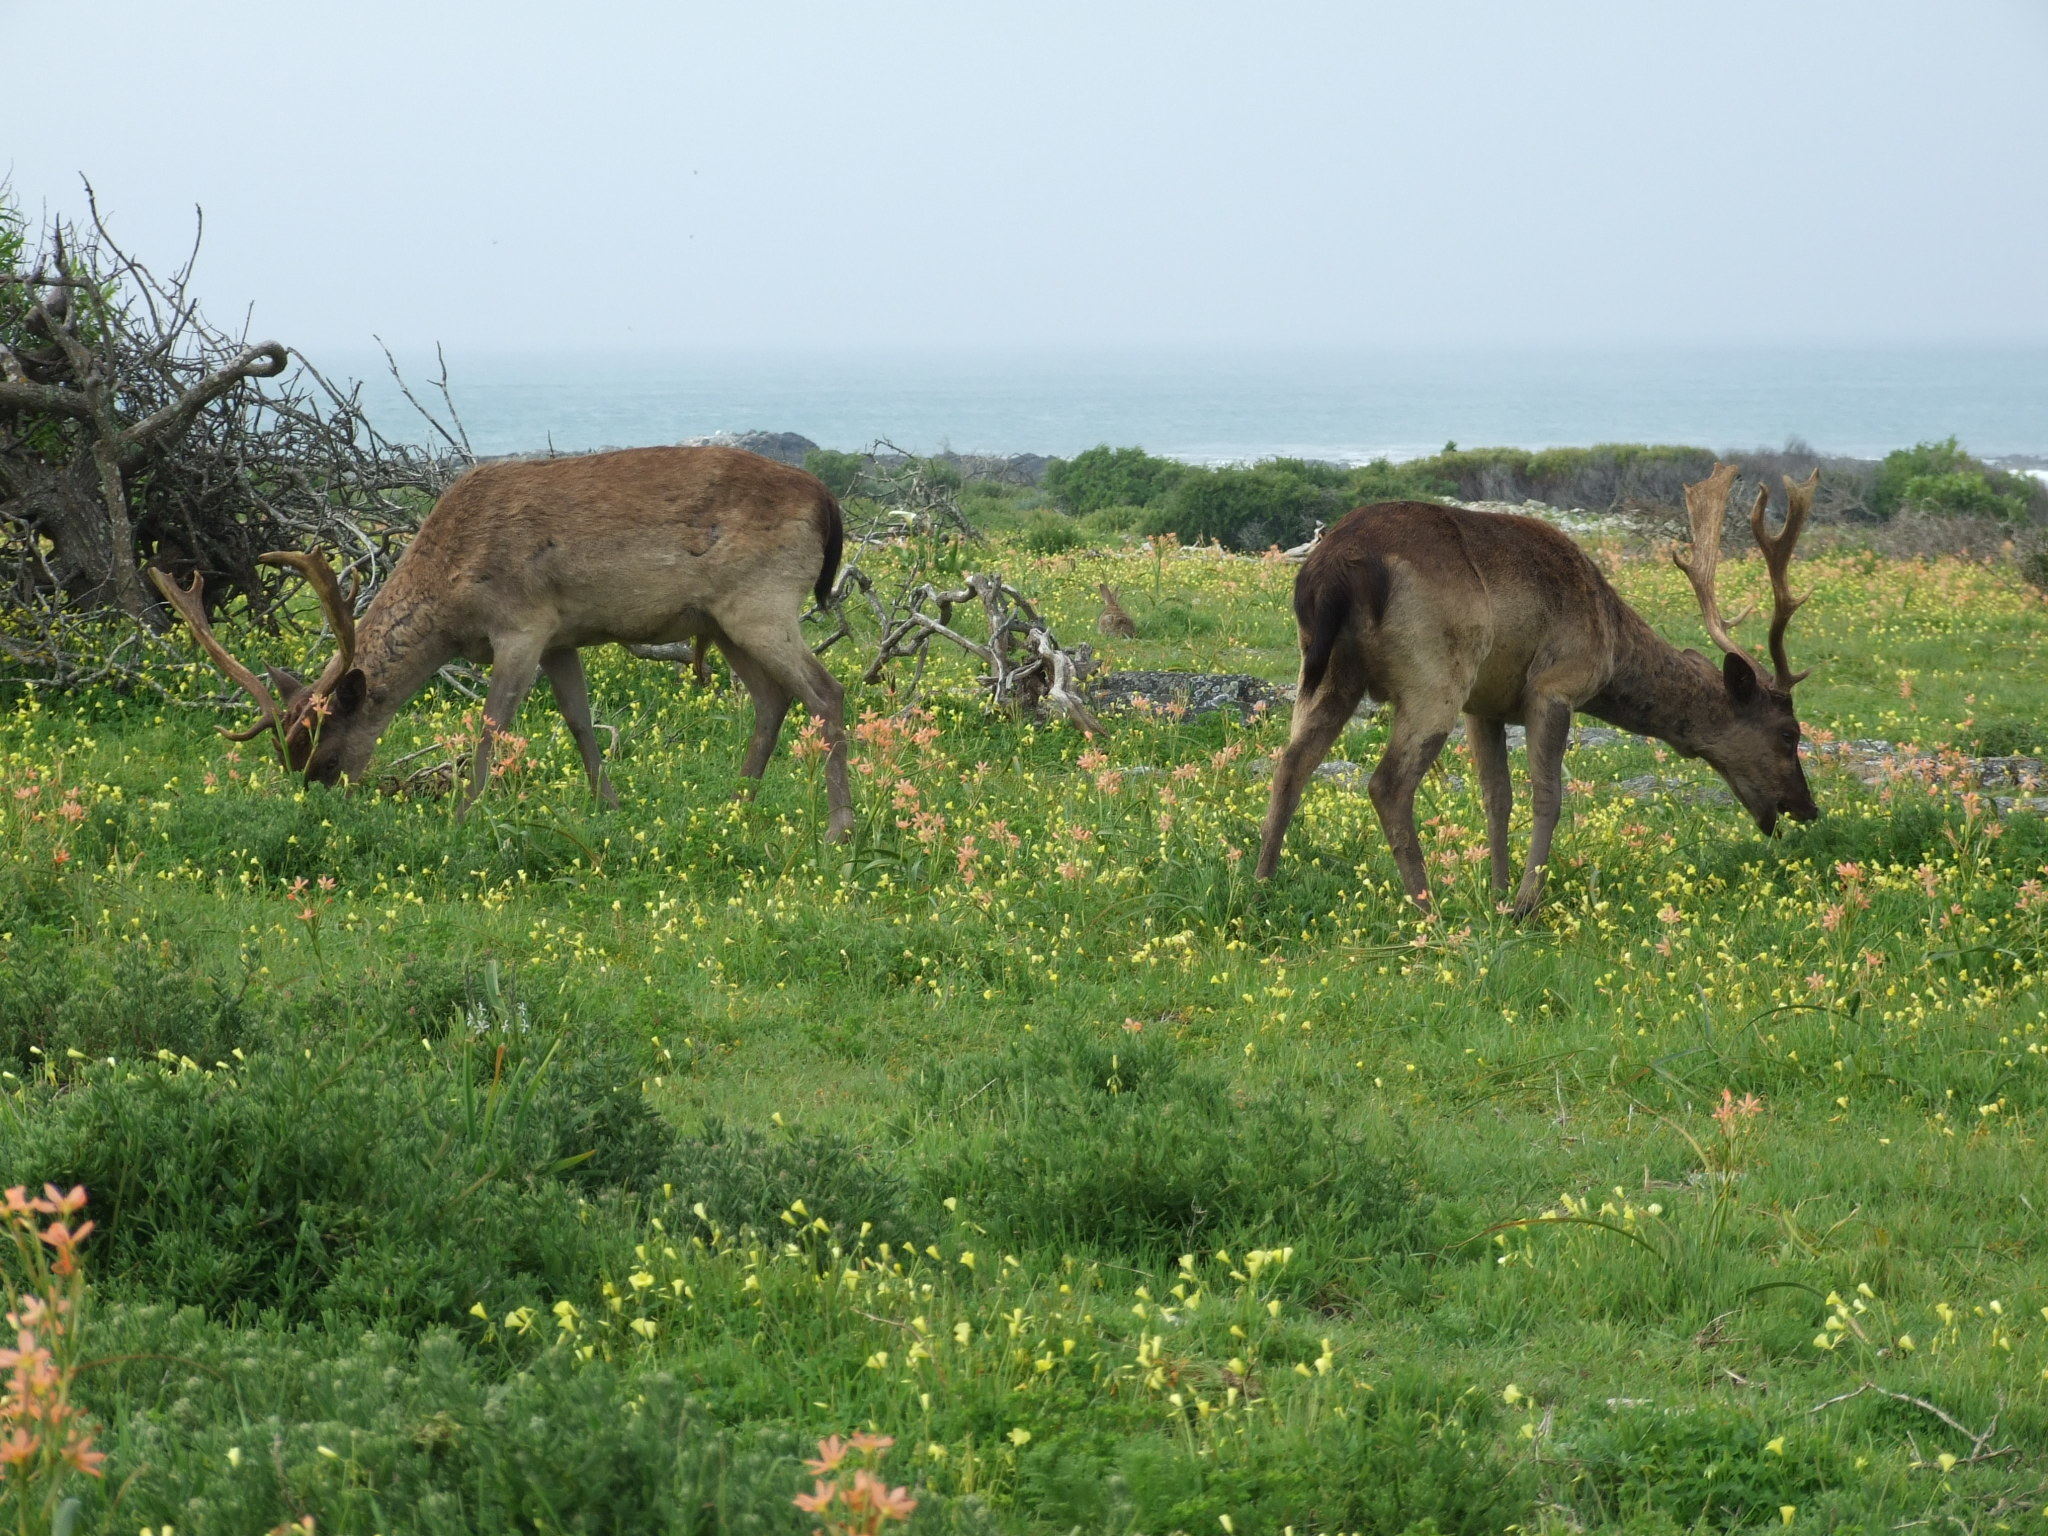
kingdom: Animalia
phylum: Chordata
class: Mammalia
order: Artiodactyla
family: Cervidae
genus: Dama
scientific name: Dama dama
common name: Fallow deer
